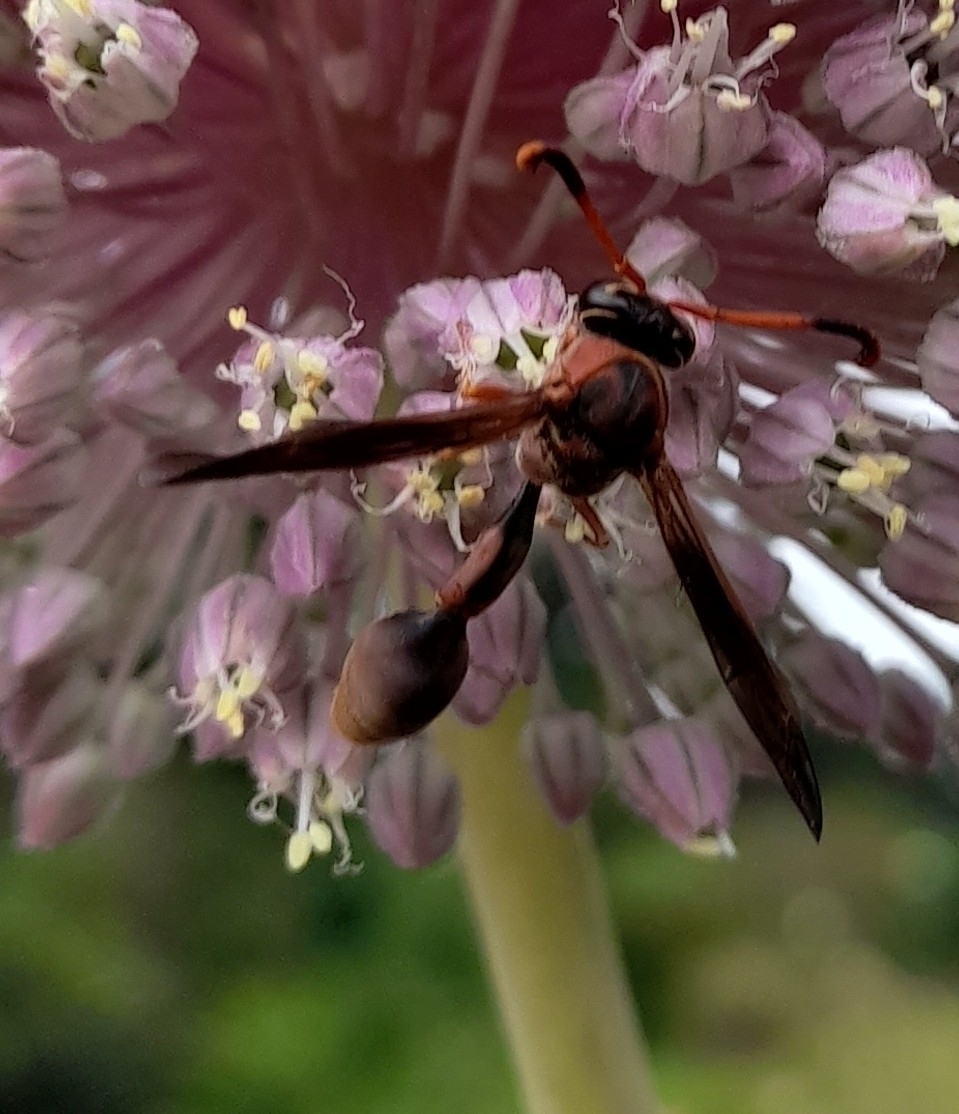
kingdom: Animalia
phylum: Arthropoda
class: Insecta
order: Hymenoptera
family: Eumenidae
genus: Zeta
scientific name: Zeta argillaceum
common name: Potter wasp
